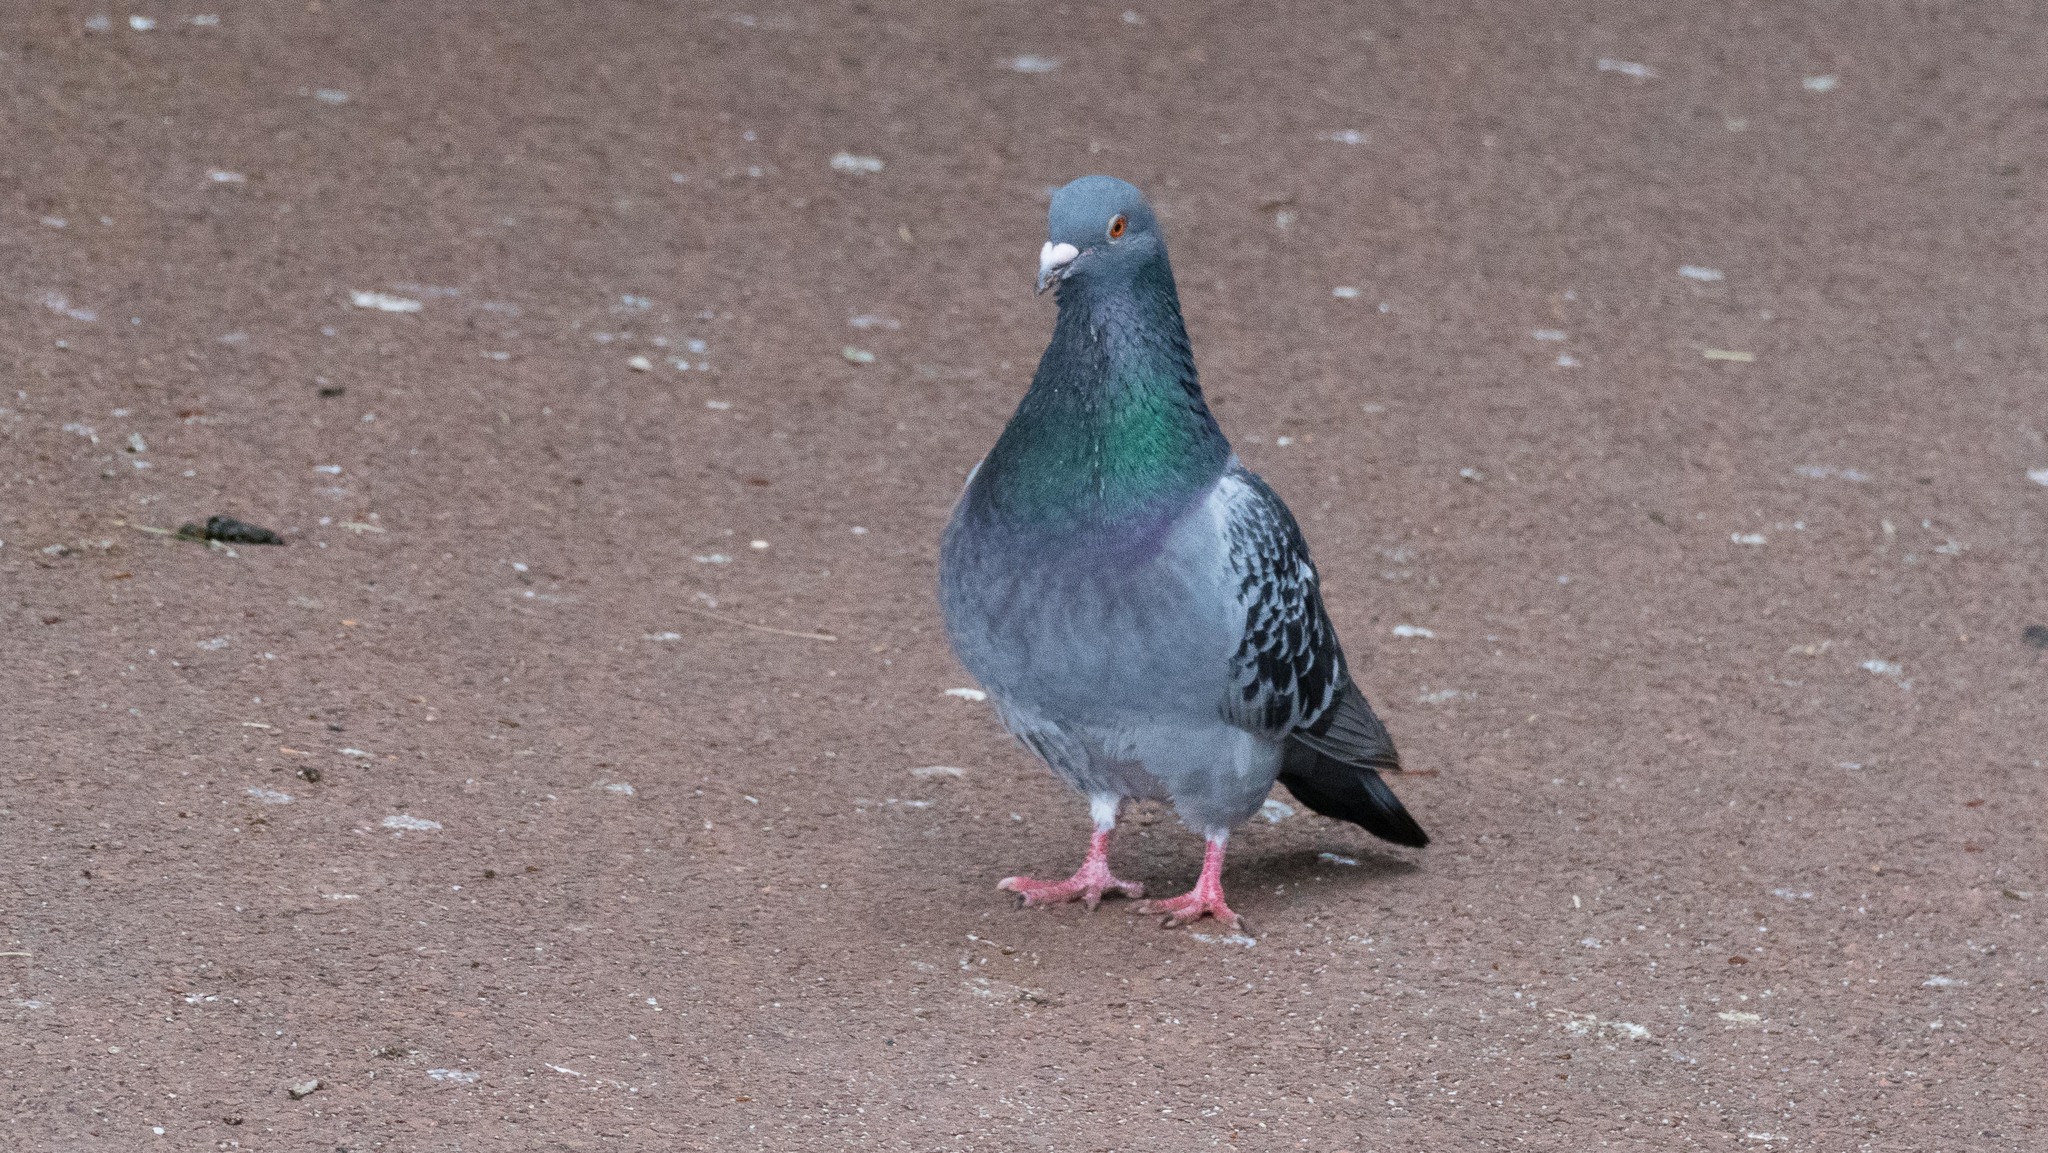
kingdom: Animalia
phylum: Chordata
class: Aves
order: Columbiformes
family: Columbidae
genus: Columba
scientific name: Columba livia
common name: Rock pigeon
